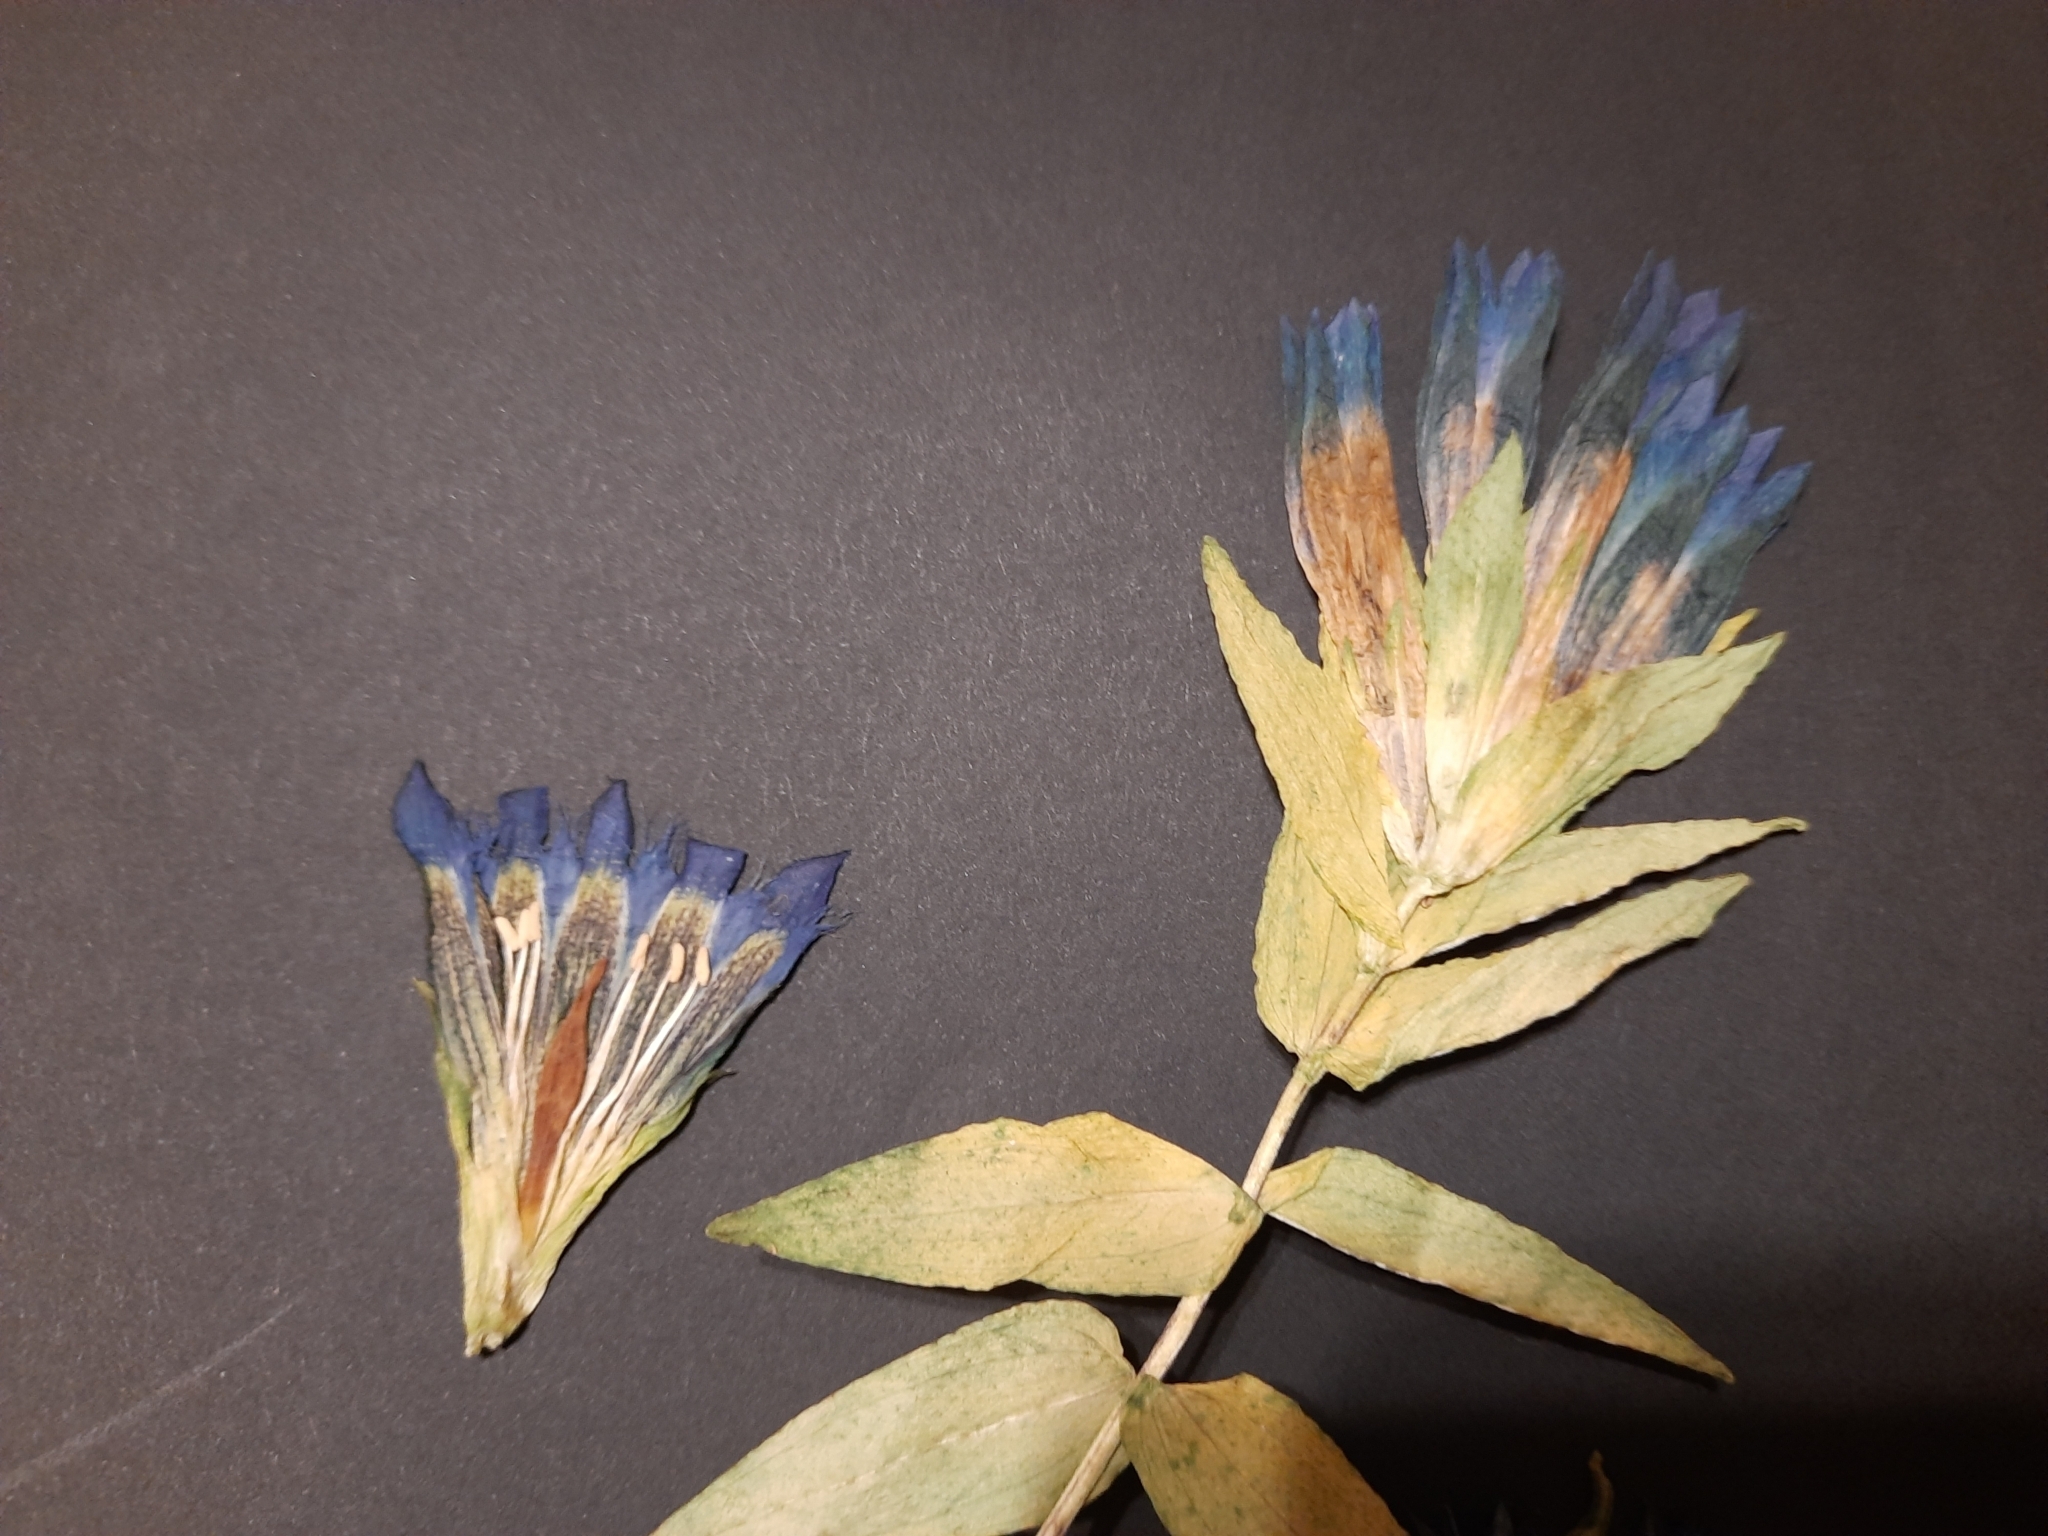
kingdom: Plantae
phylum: Tracheophyta
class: Magnoliopsida
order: Gentianales
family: Gentianaceae
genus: Gentiana
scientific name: Gentiana septemfida
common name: Crested gentian
